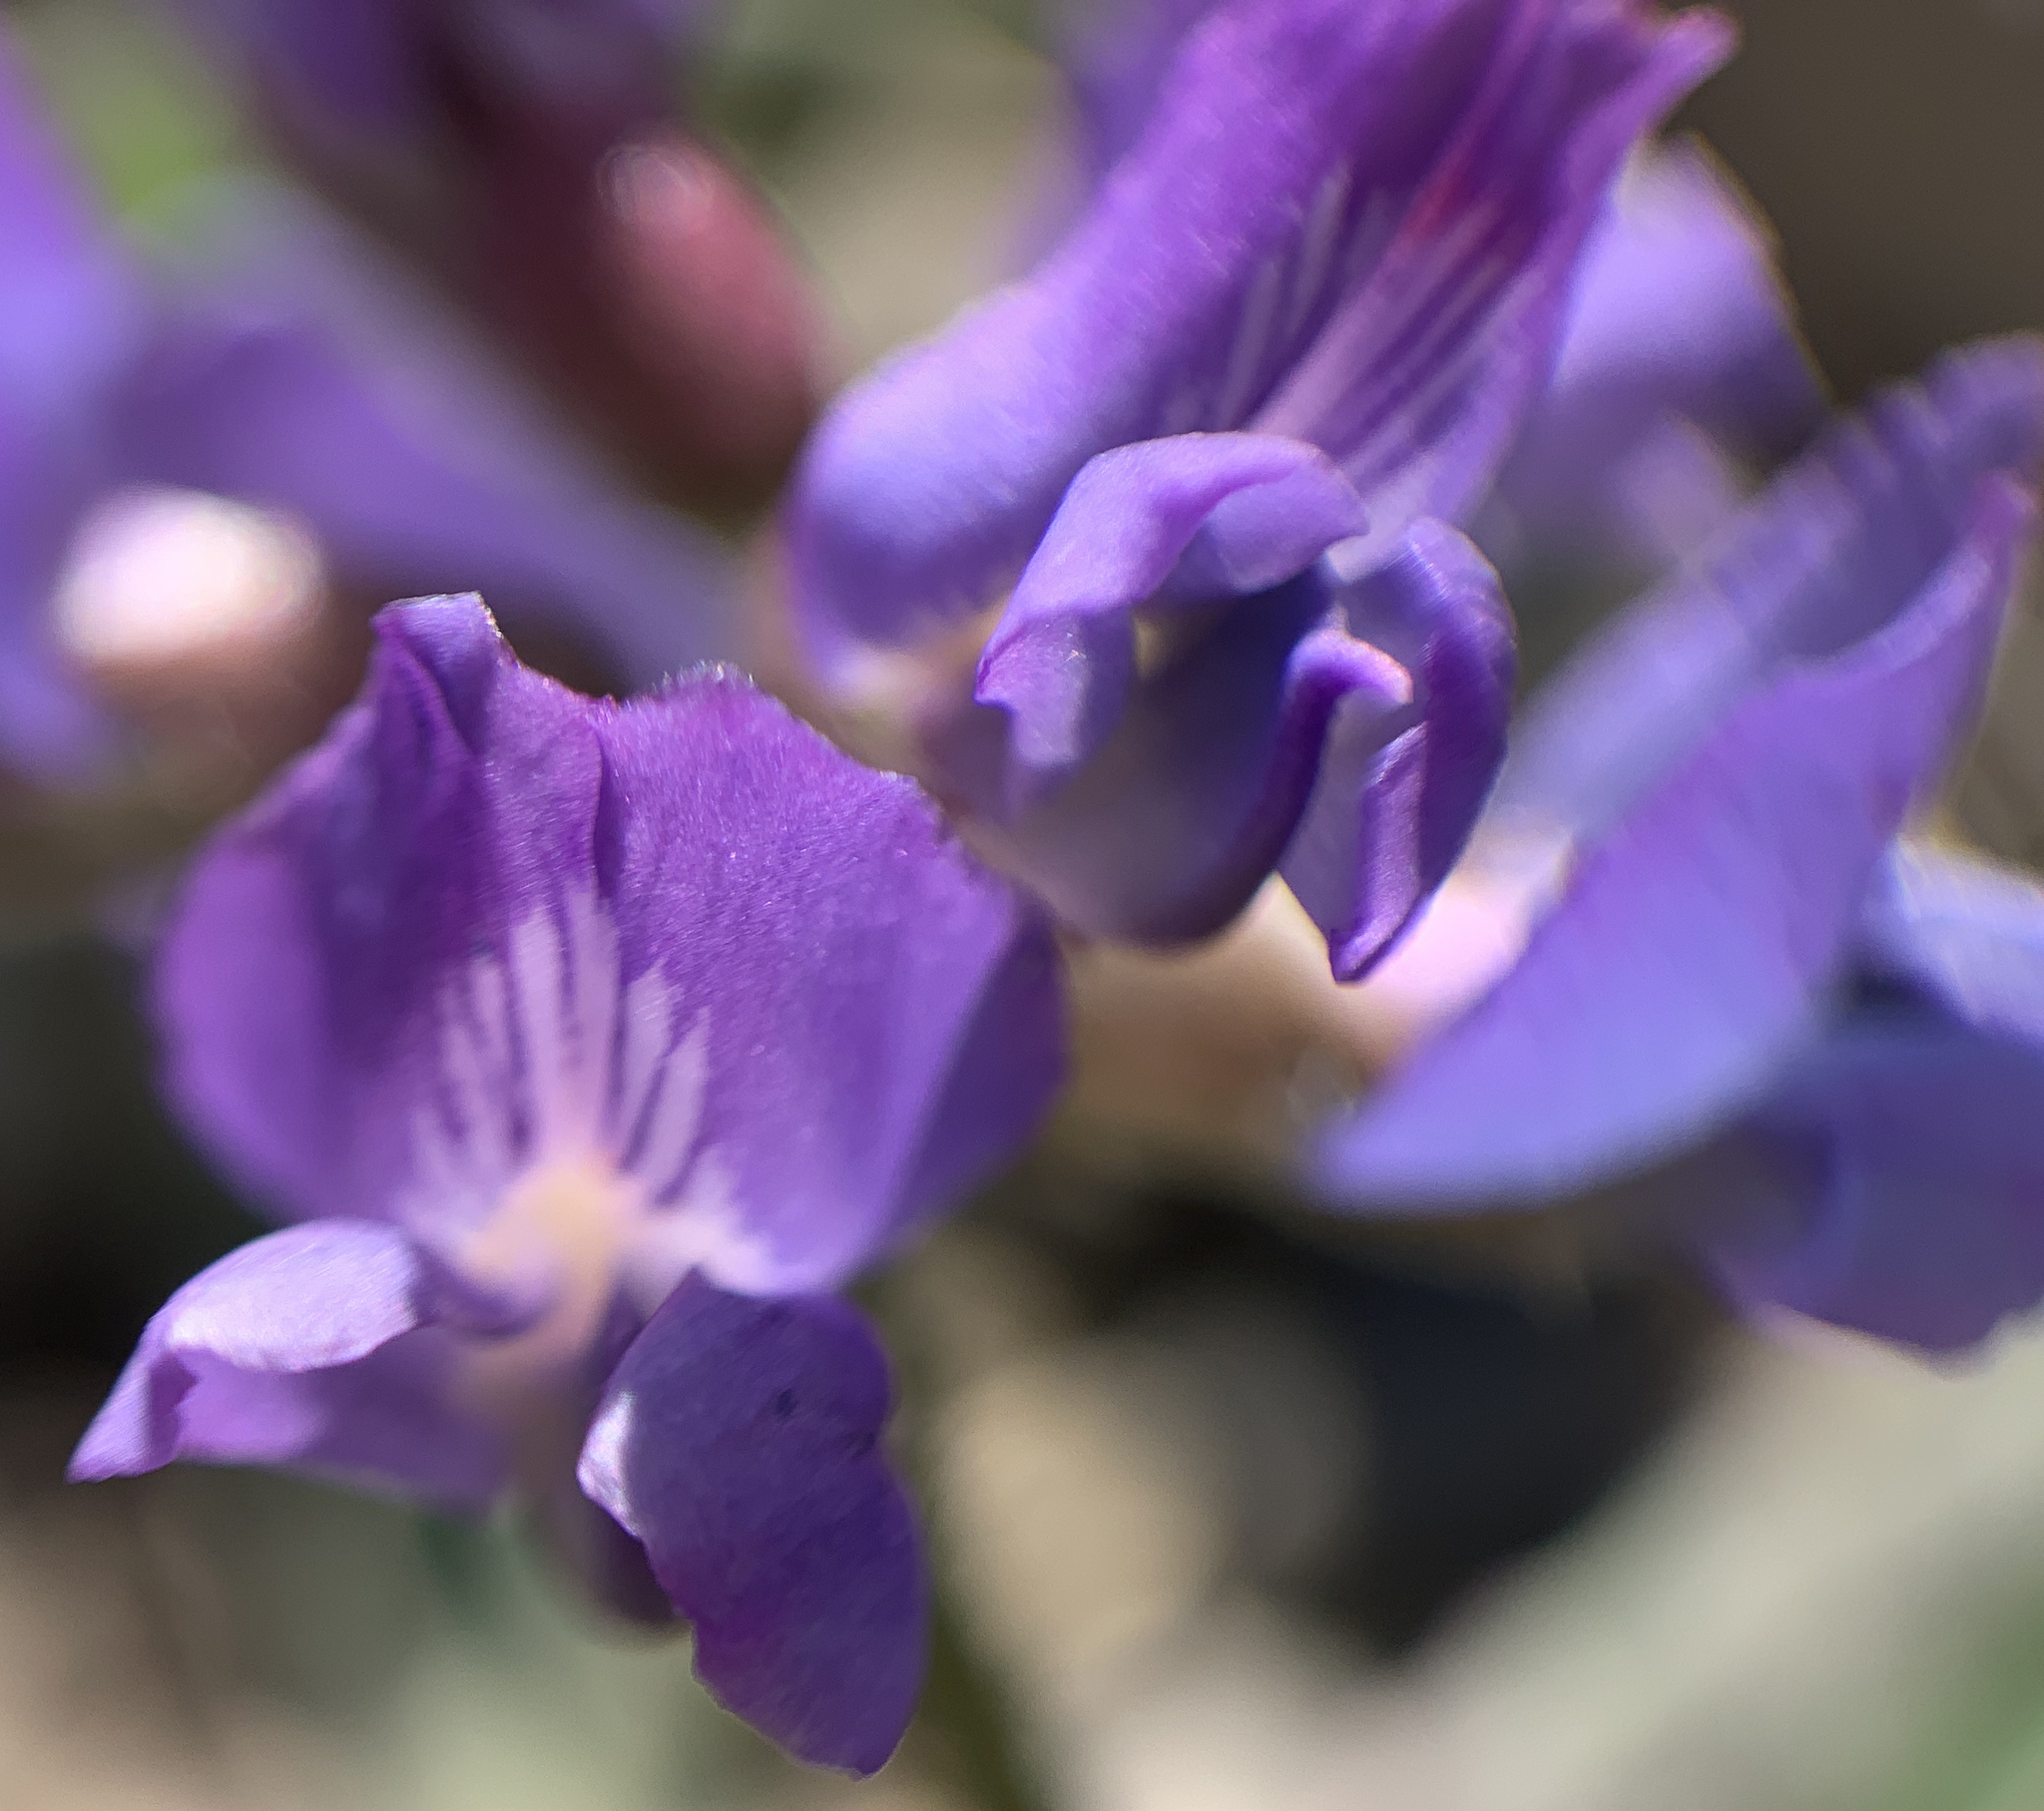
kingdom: Plantae
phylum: Tracheophyta
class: Magnoliopsida
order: Fabales
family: Fabaceae
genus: Oxytropis
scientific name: Oxytropis deflexa
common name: Stemmed oxytrope
